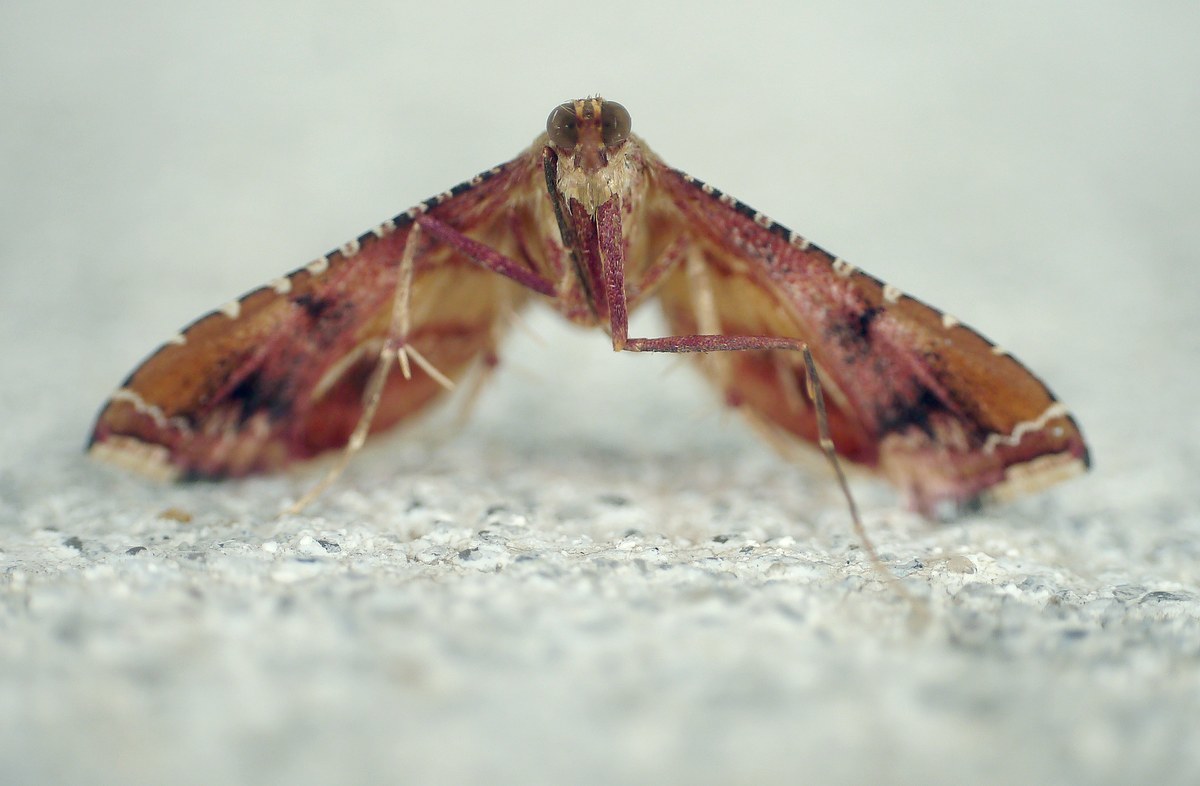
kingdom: Animalia
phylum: Arthropoda
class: Insecta
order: Lepidoptera
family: Pyralidae
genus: Endotricha
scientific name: Endotricha flammealis
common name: Rosy tabby
